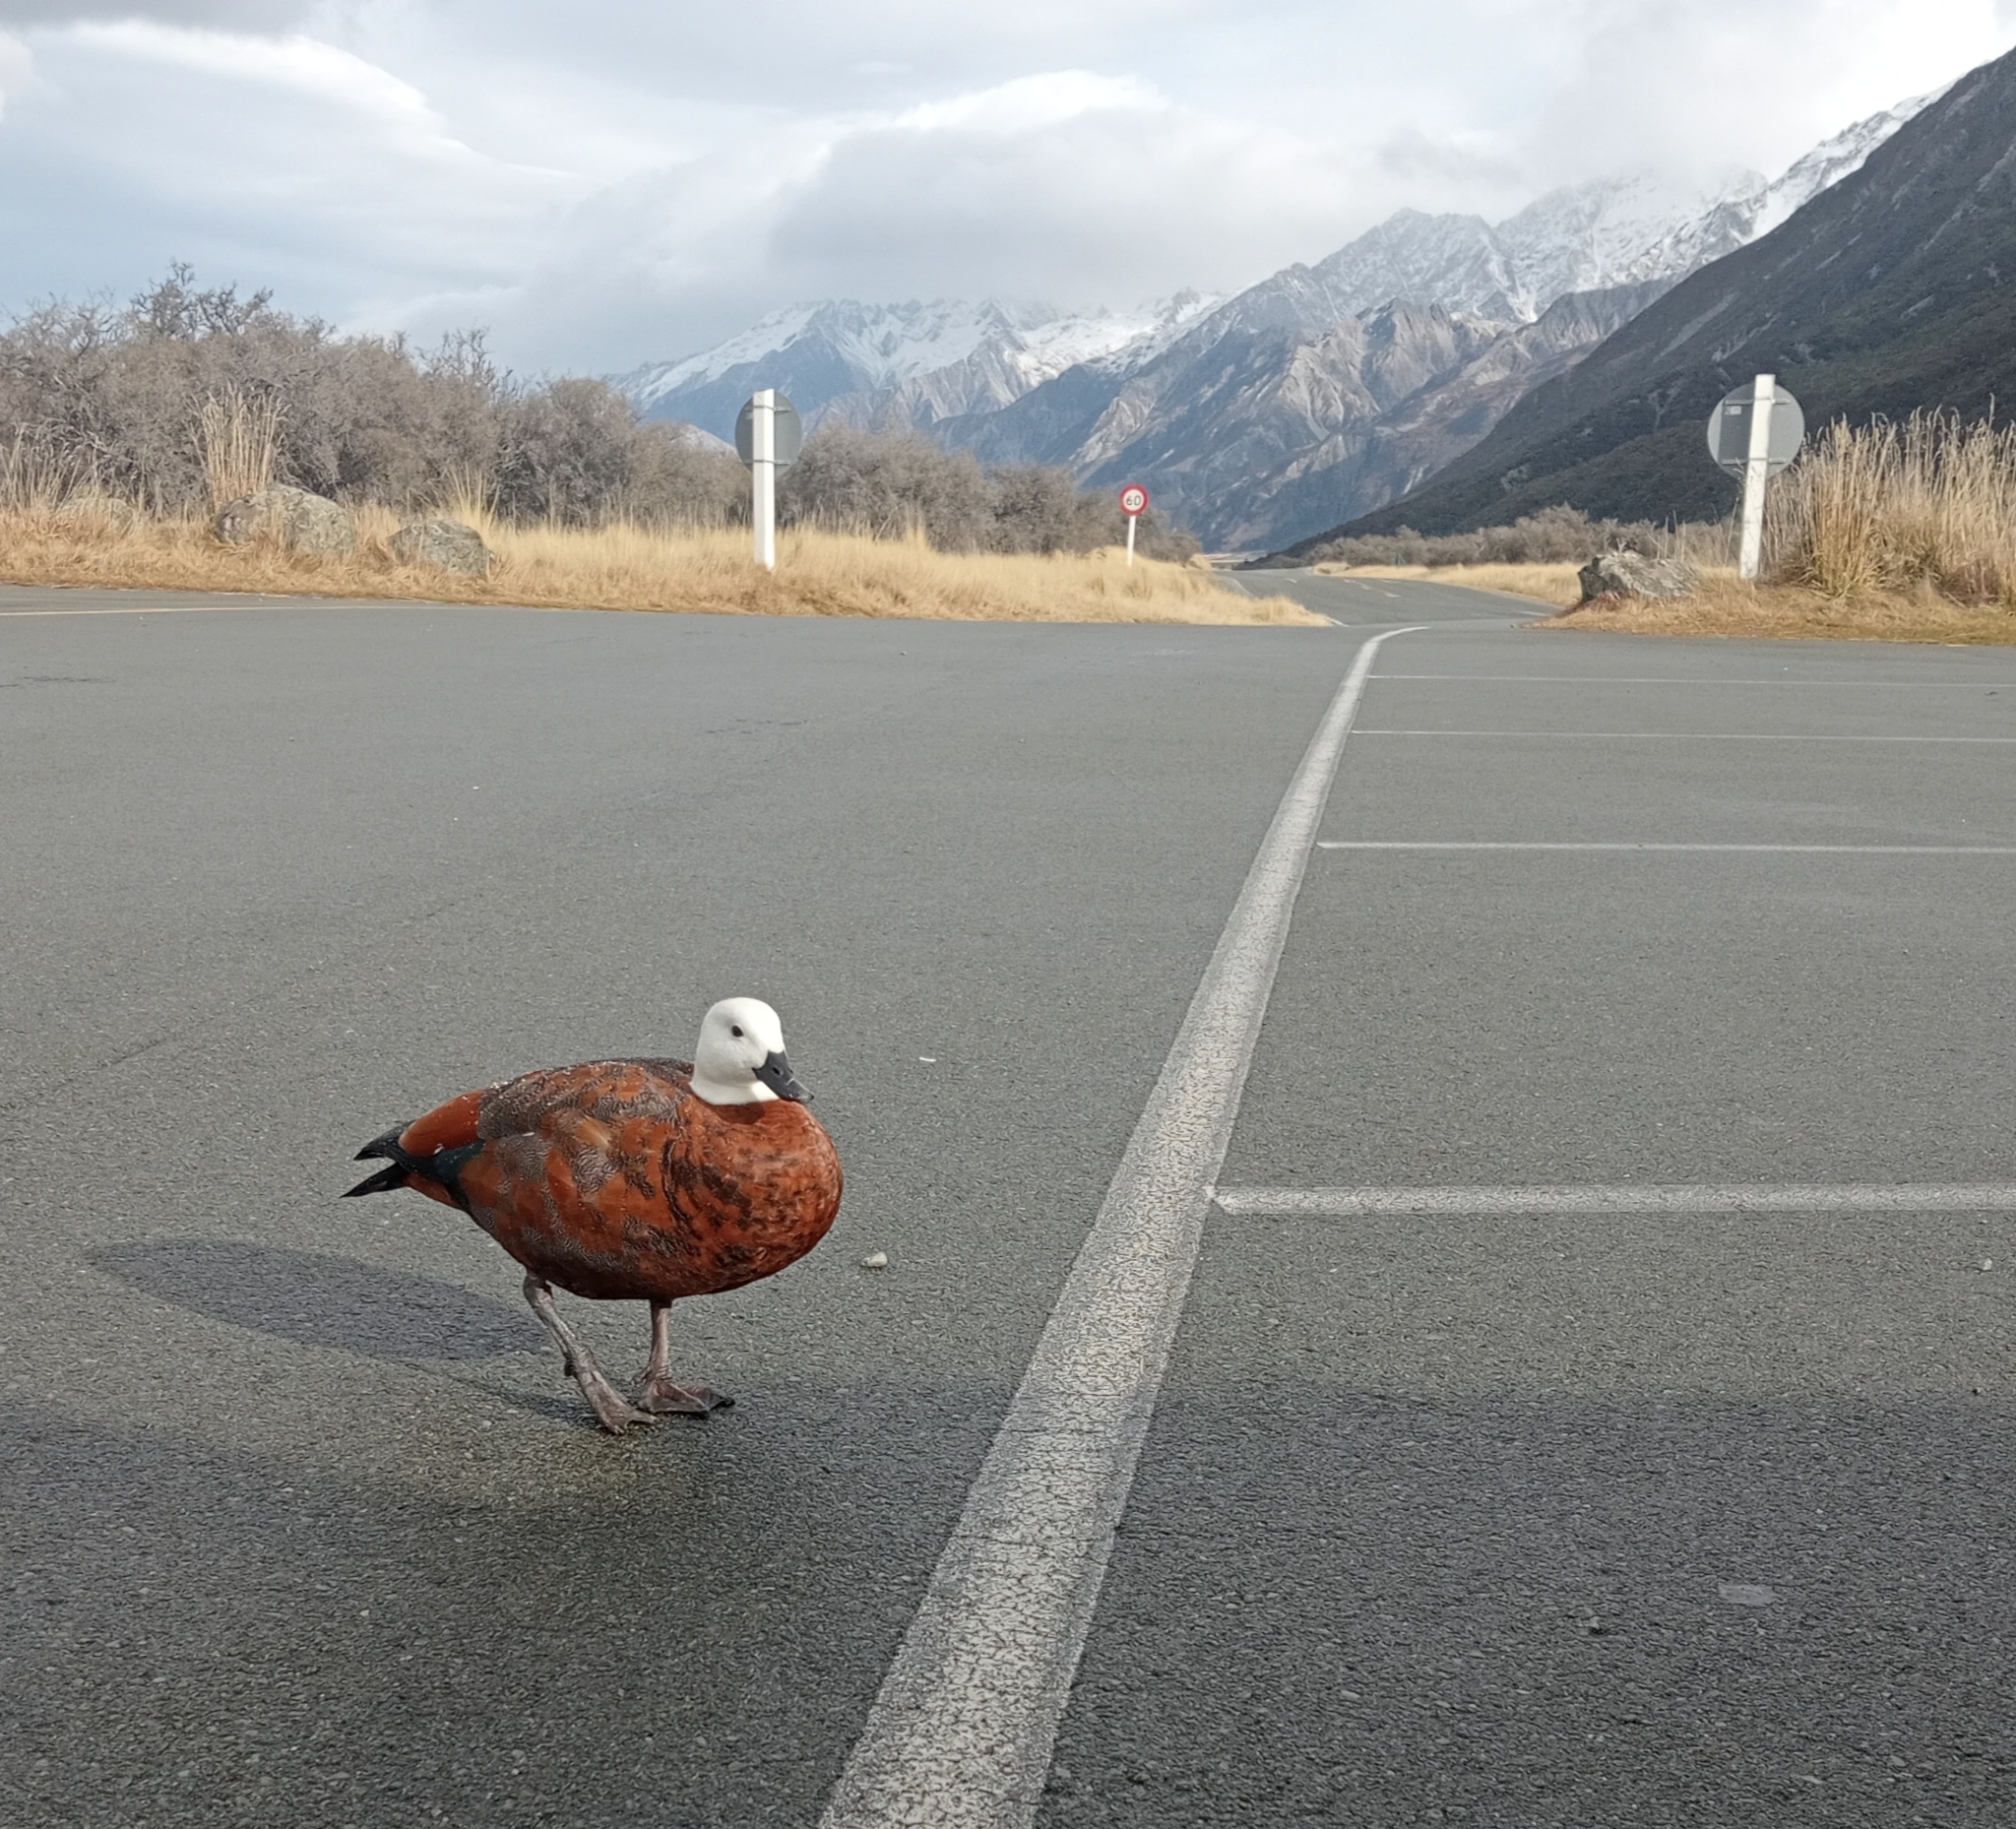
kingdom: Animalia
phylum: Chordata
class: Aves
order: Anseriformes
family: Anatidae
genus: Tadorna
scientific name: Tadorna variegata
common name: Paradise shelduck
